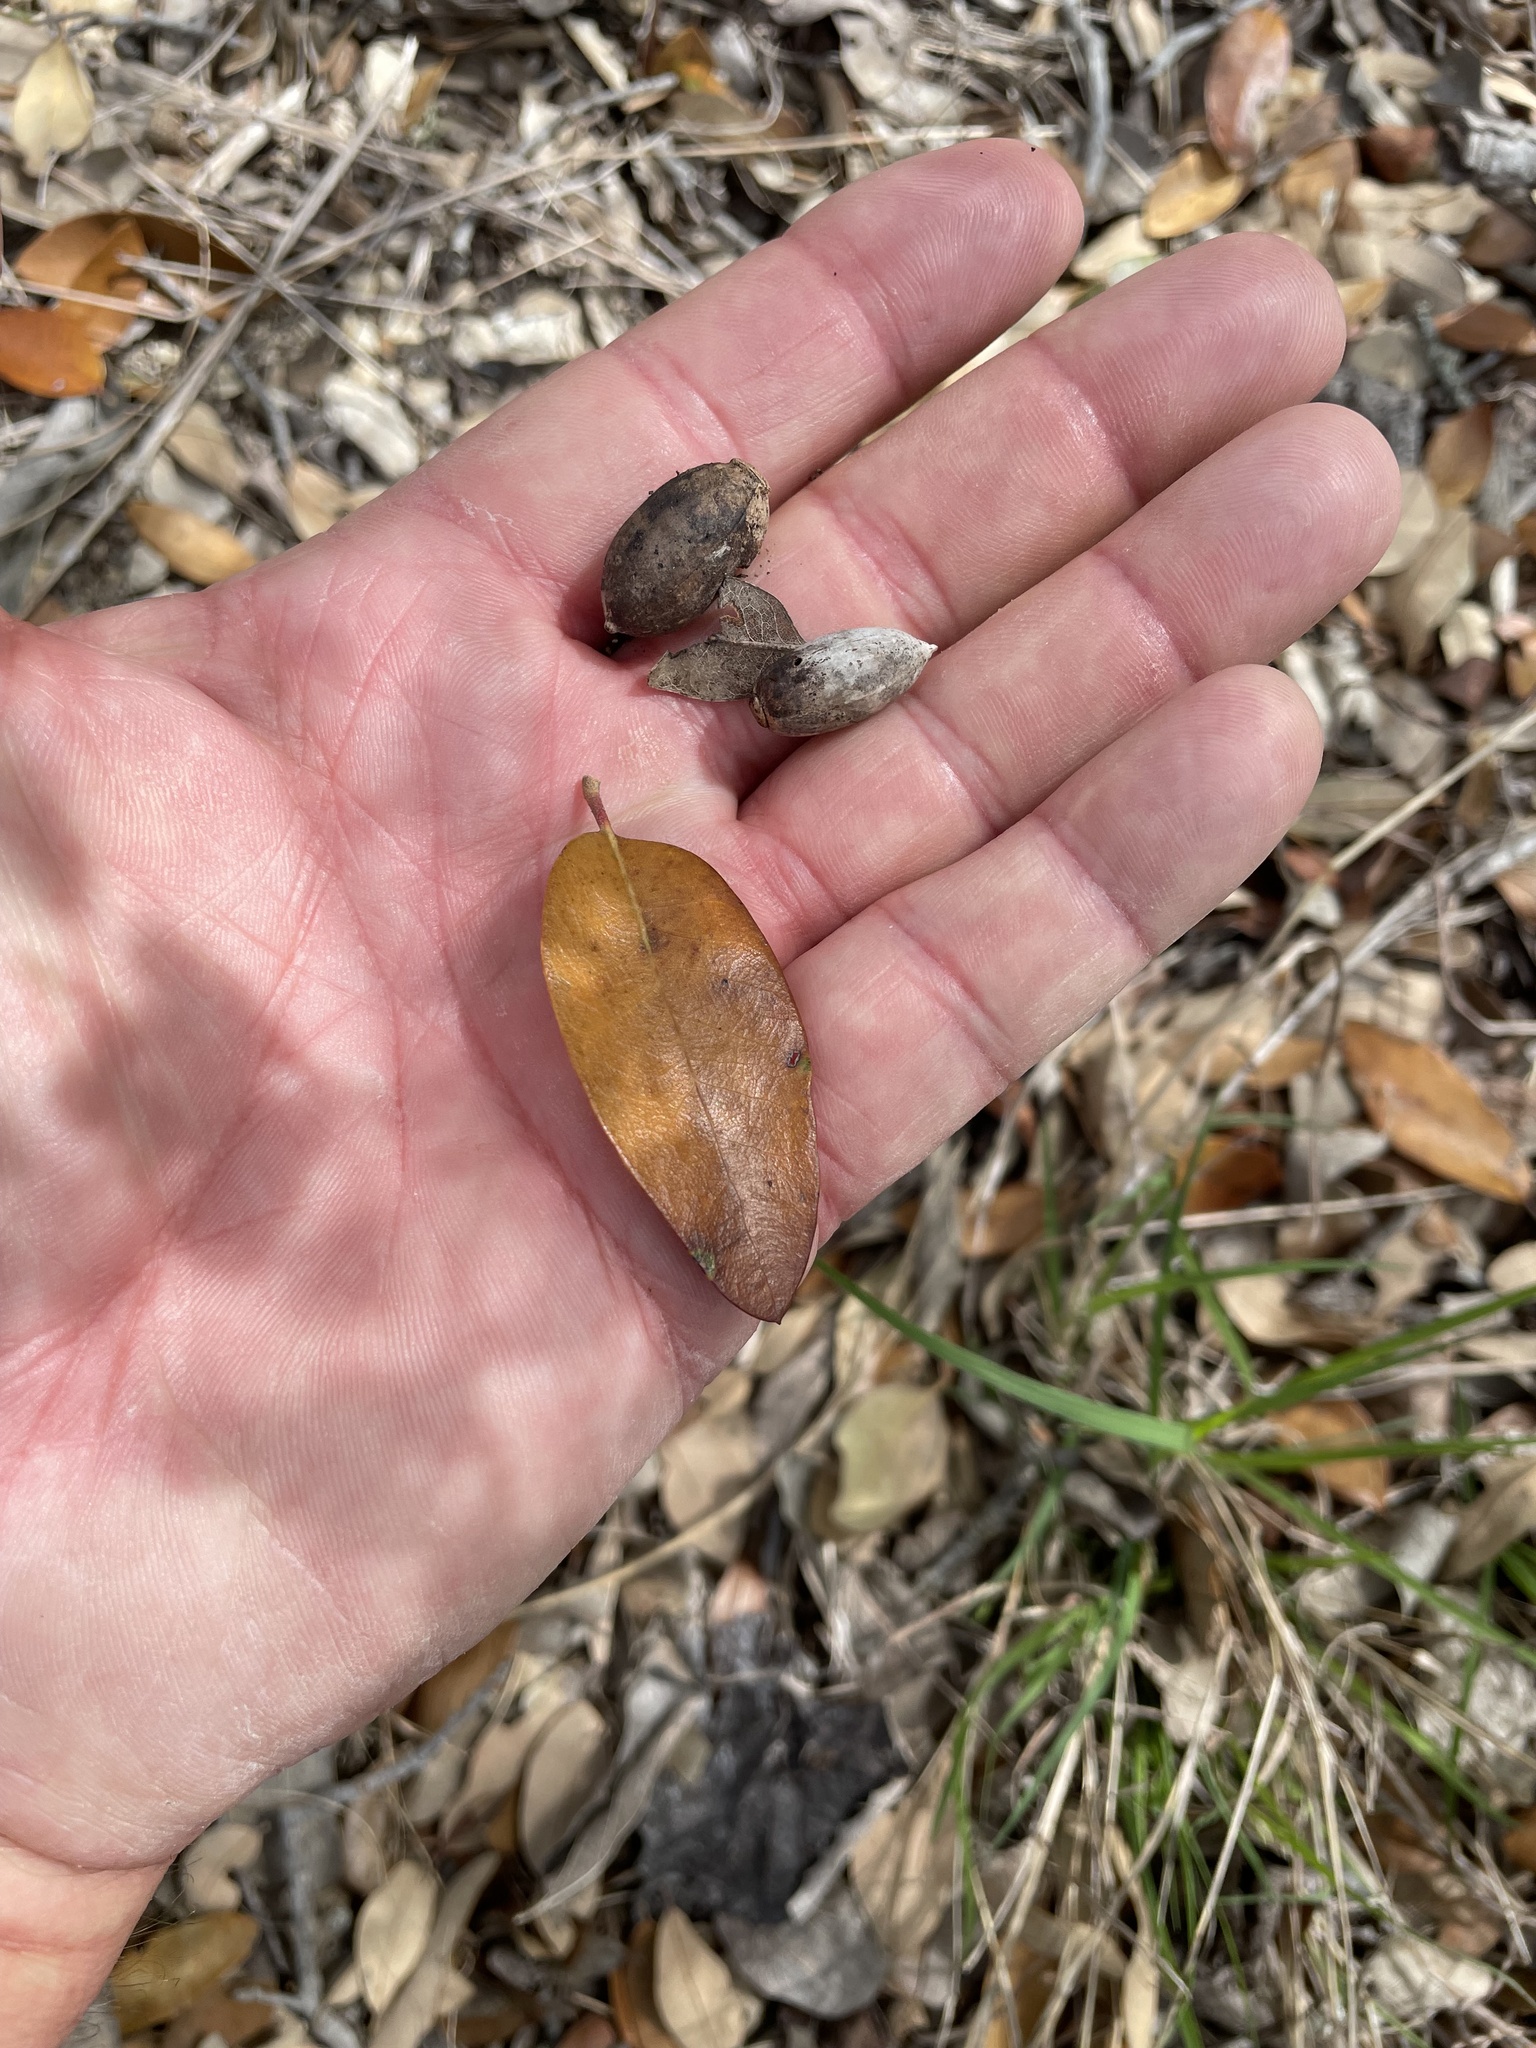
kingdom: Plantae
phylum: Tracheophyta
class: Magnoliopsida
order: Fagales
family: Fagaceae
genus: Quercus
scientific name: Quercus fusiformis
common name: Texas live oak
